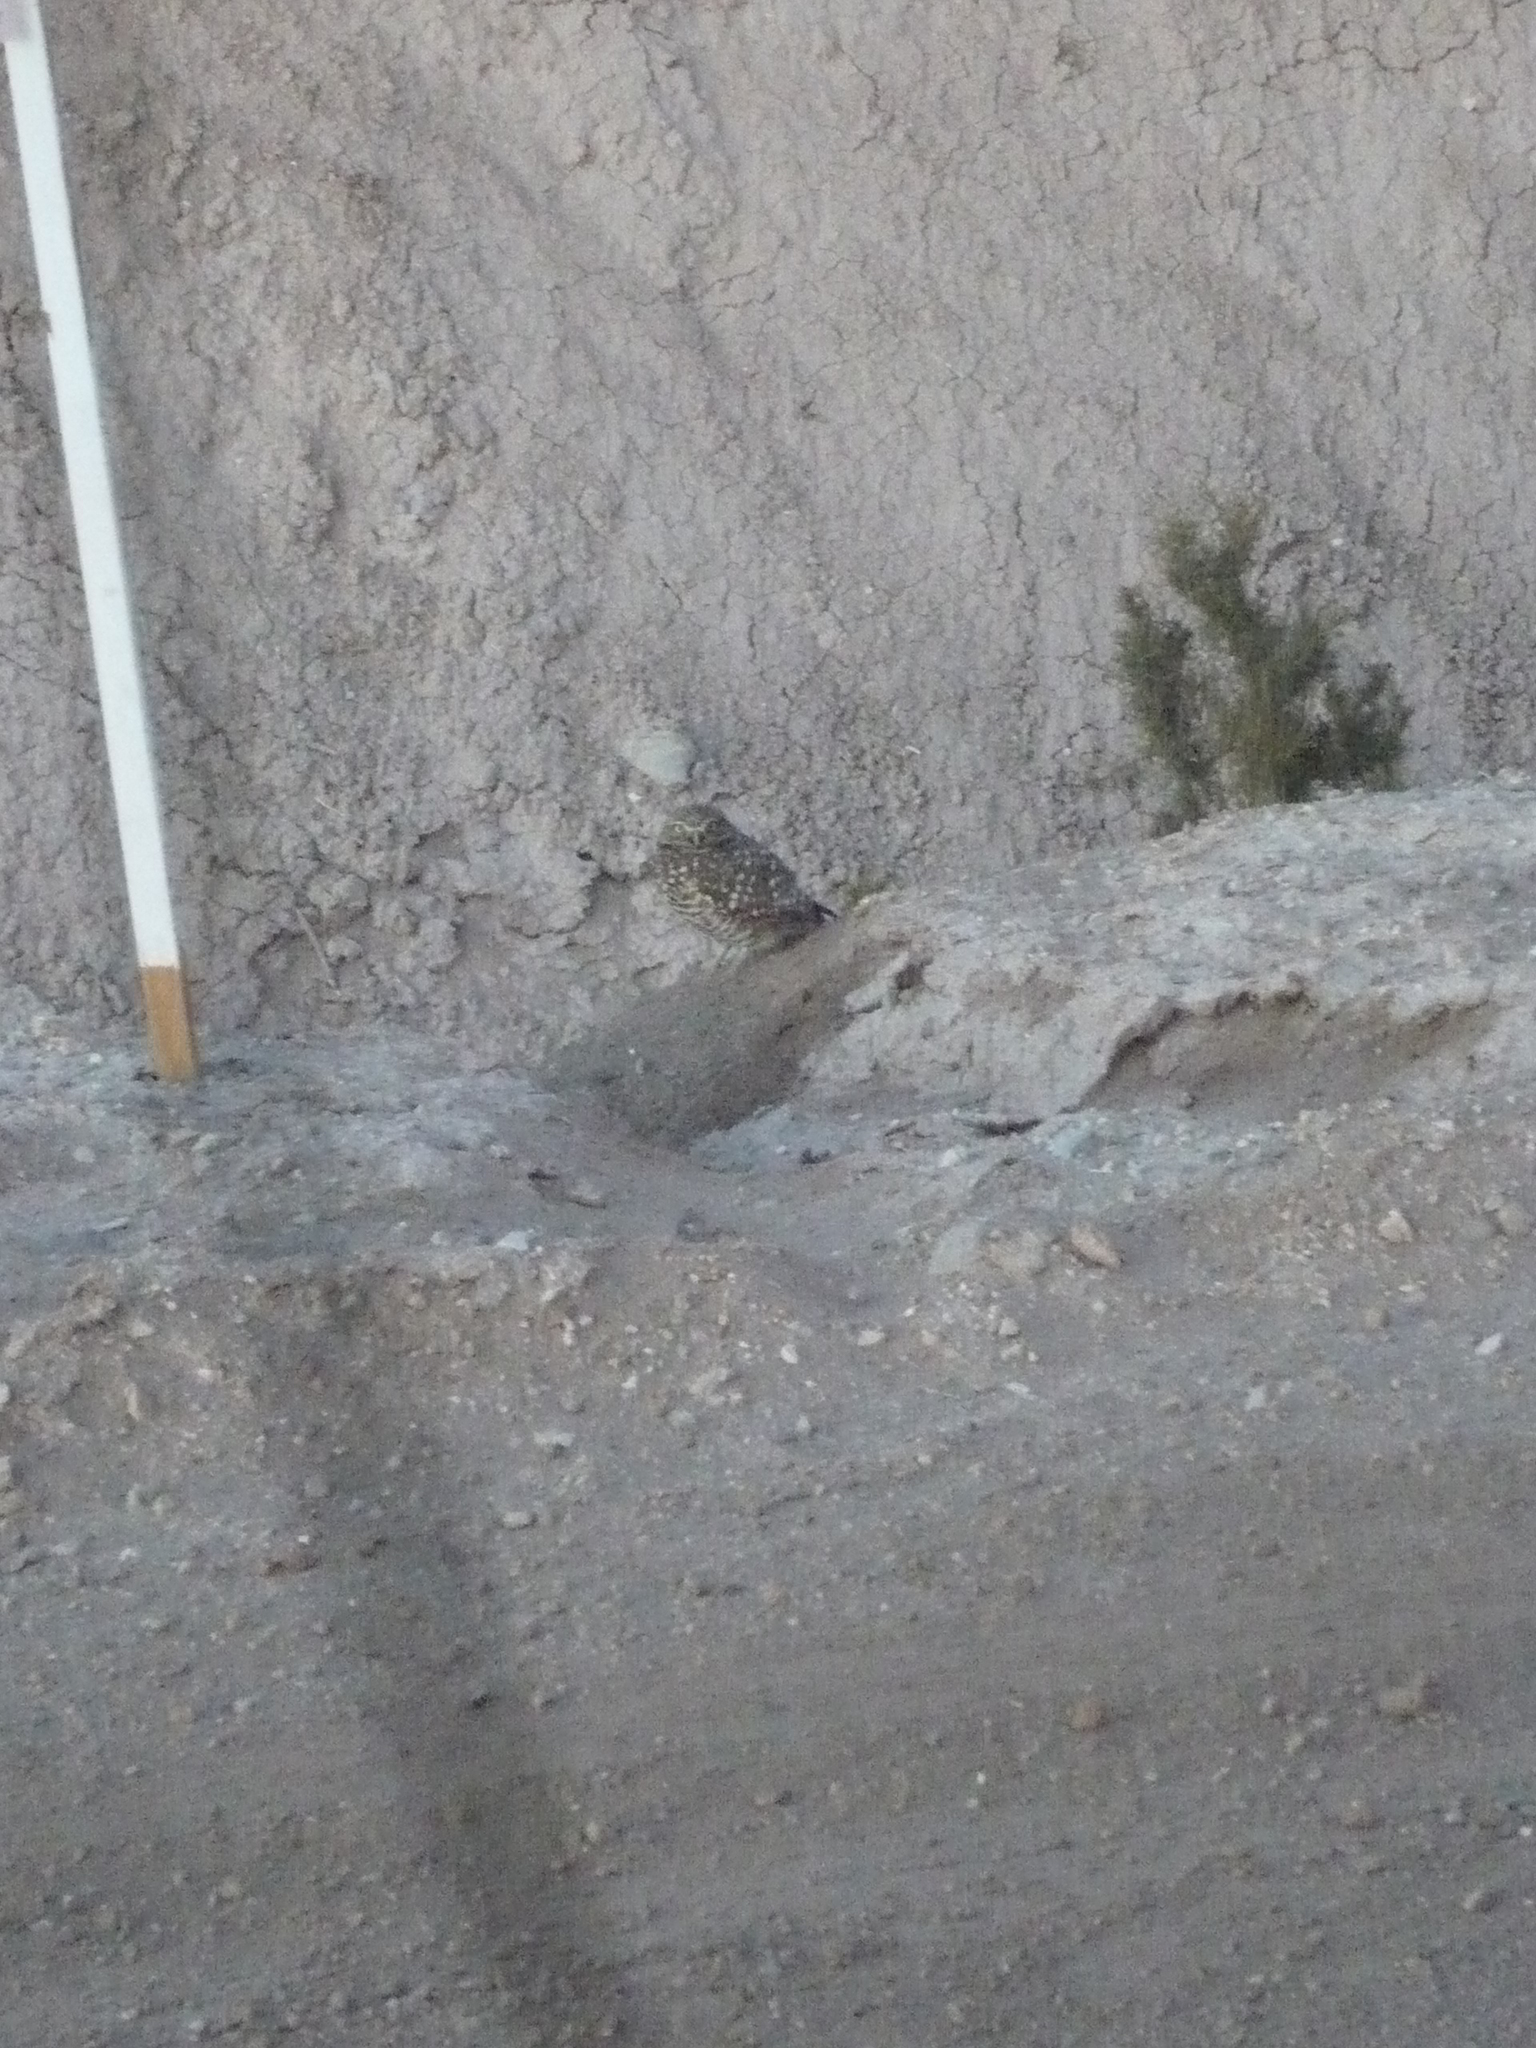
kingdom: Animalia
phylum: Chordata
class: Aves
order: Strigiformes
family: Strigidae
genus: Athene
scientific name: Athene cunicularia
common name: Burrowing owl
